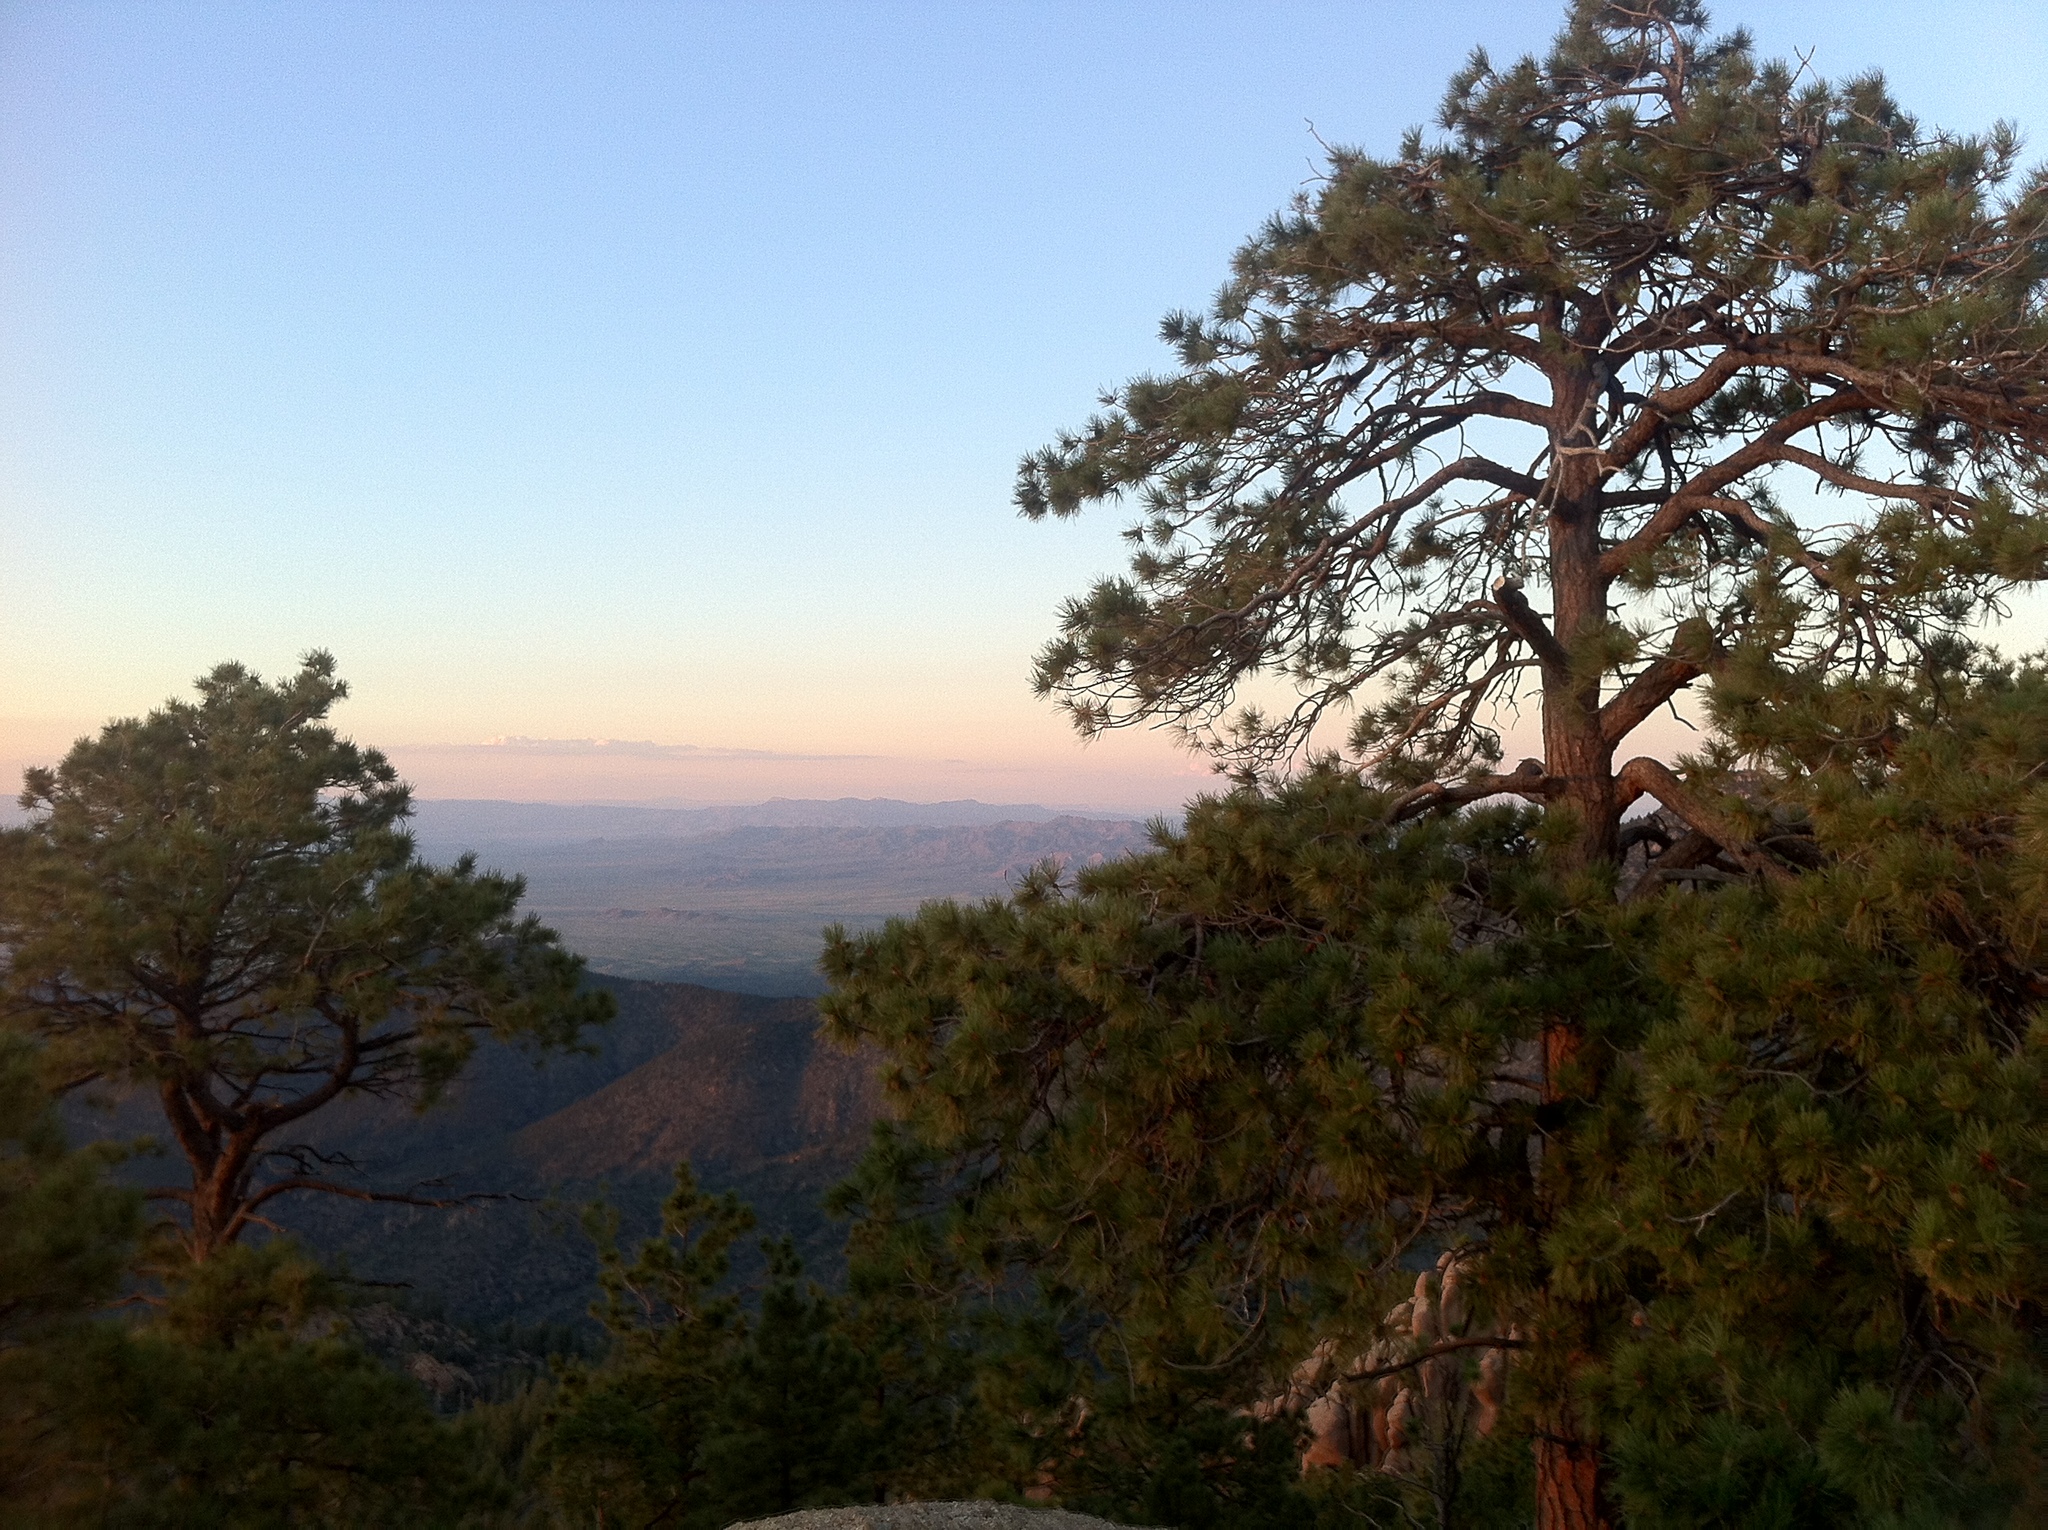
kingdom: Plantae
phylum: Tracheophyta
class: Pinopsida
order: Pinales
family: Pinaceae
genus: Pinus
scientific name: Pinus ponderosa
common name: Western yellow-pine
